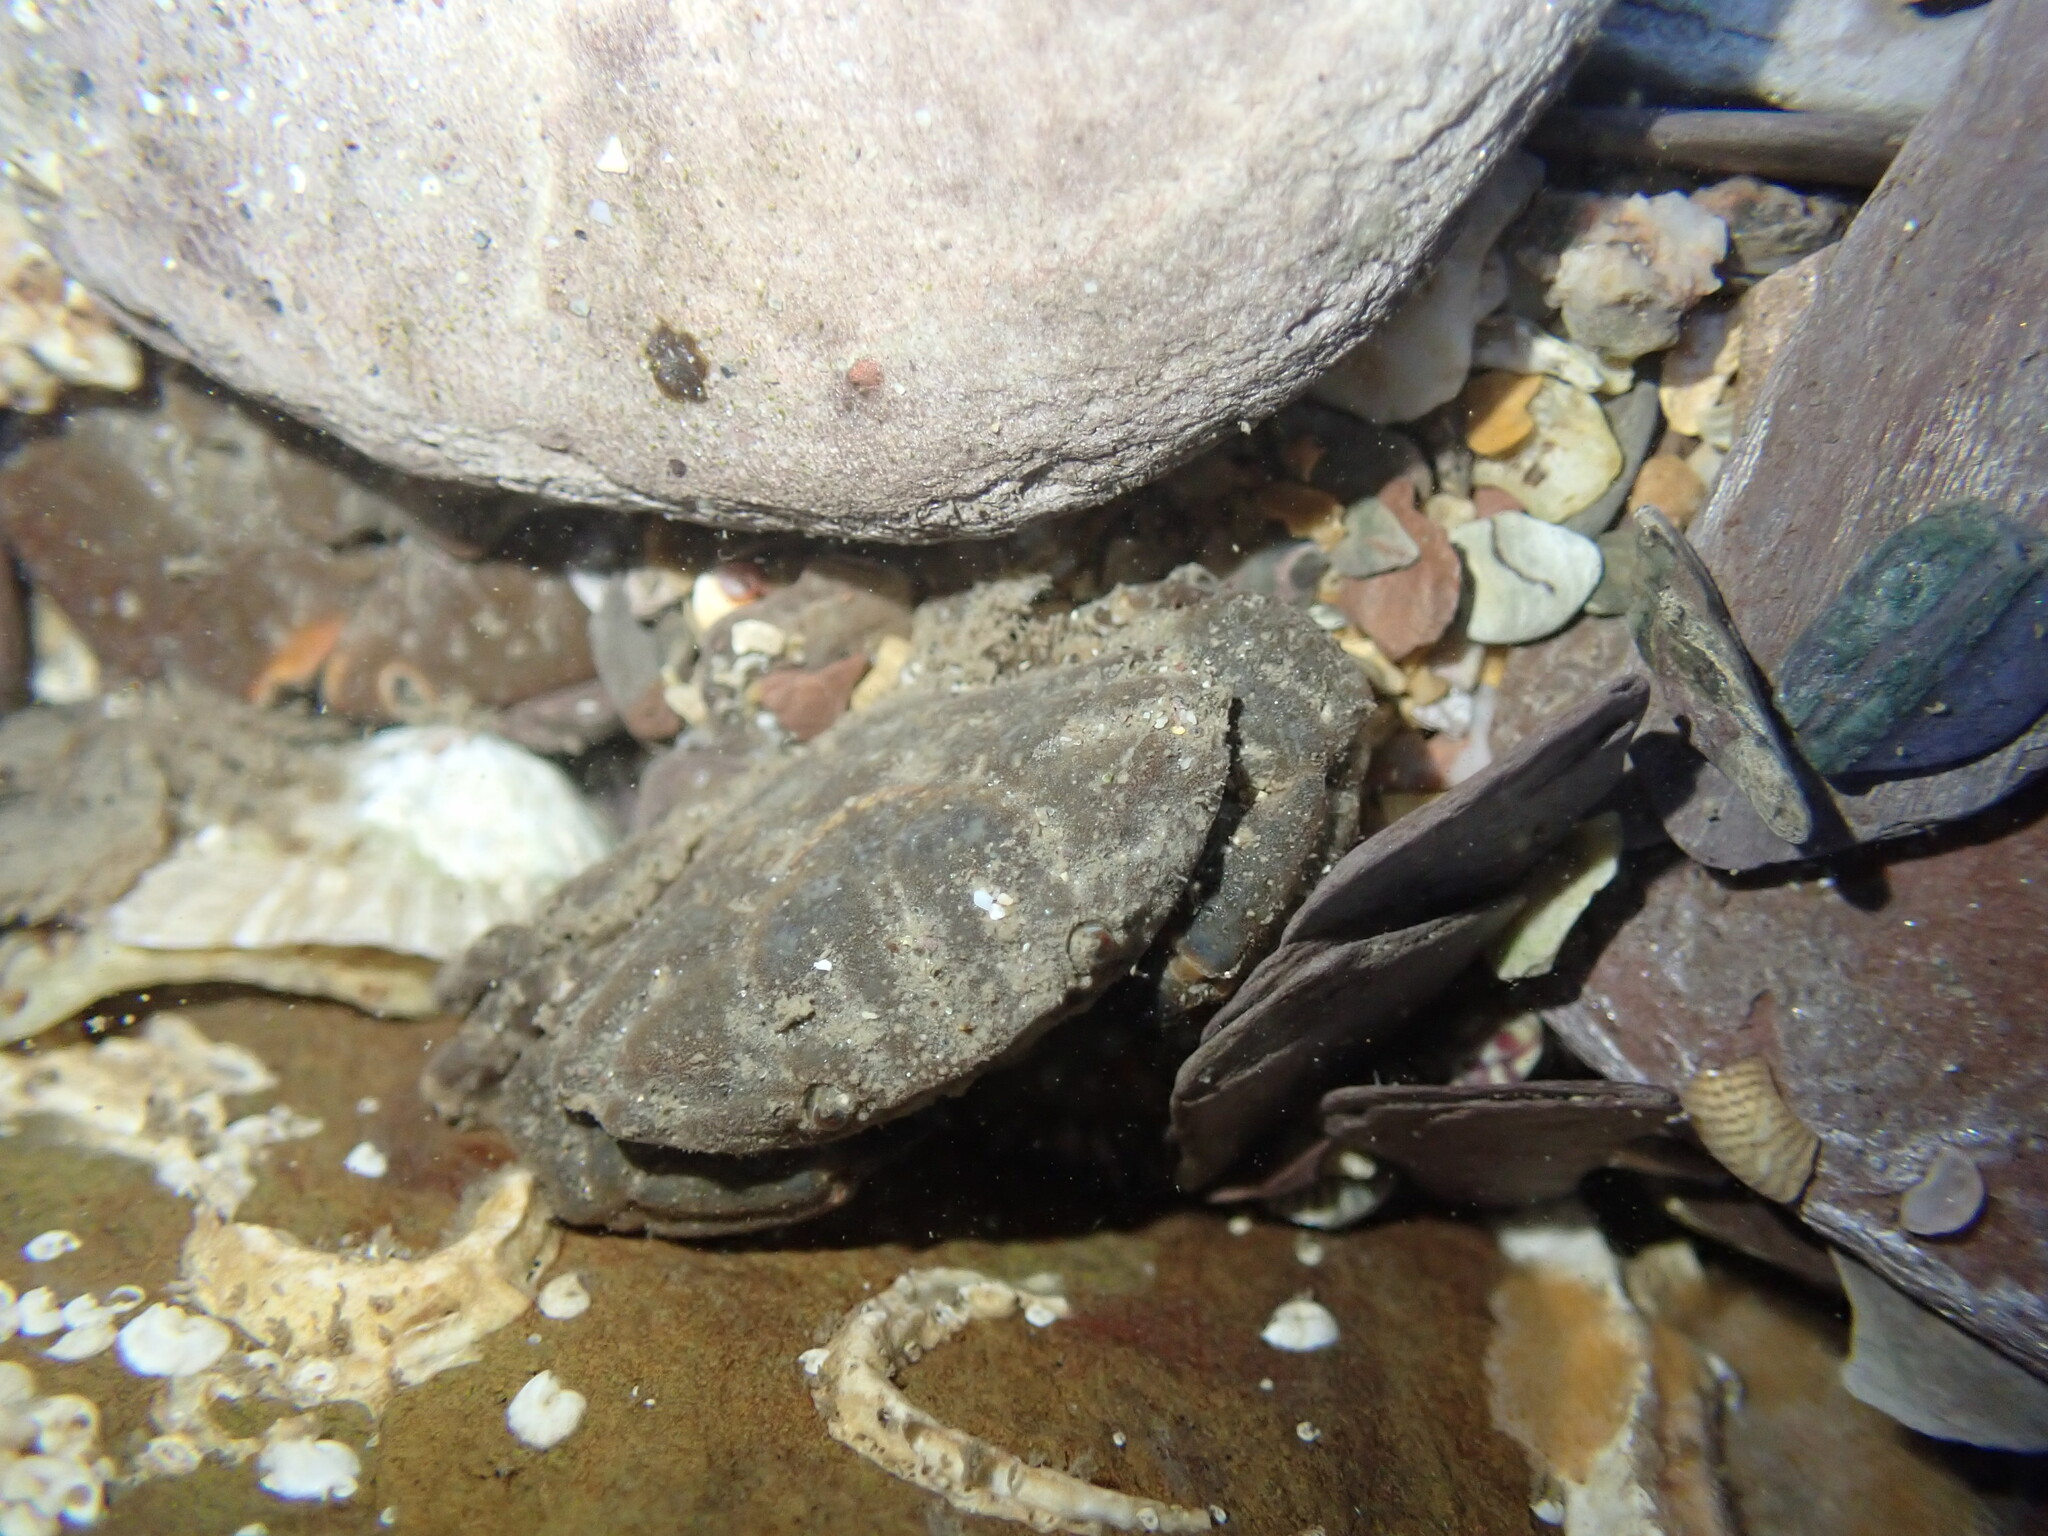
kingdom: Animalia
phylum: Arthropoda
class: Malacostraca
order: Decapoda
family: Xanthidae
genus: Xantho
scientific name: Xantho hydrophilus
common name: Montagu's crab
